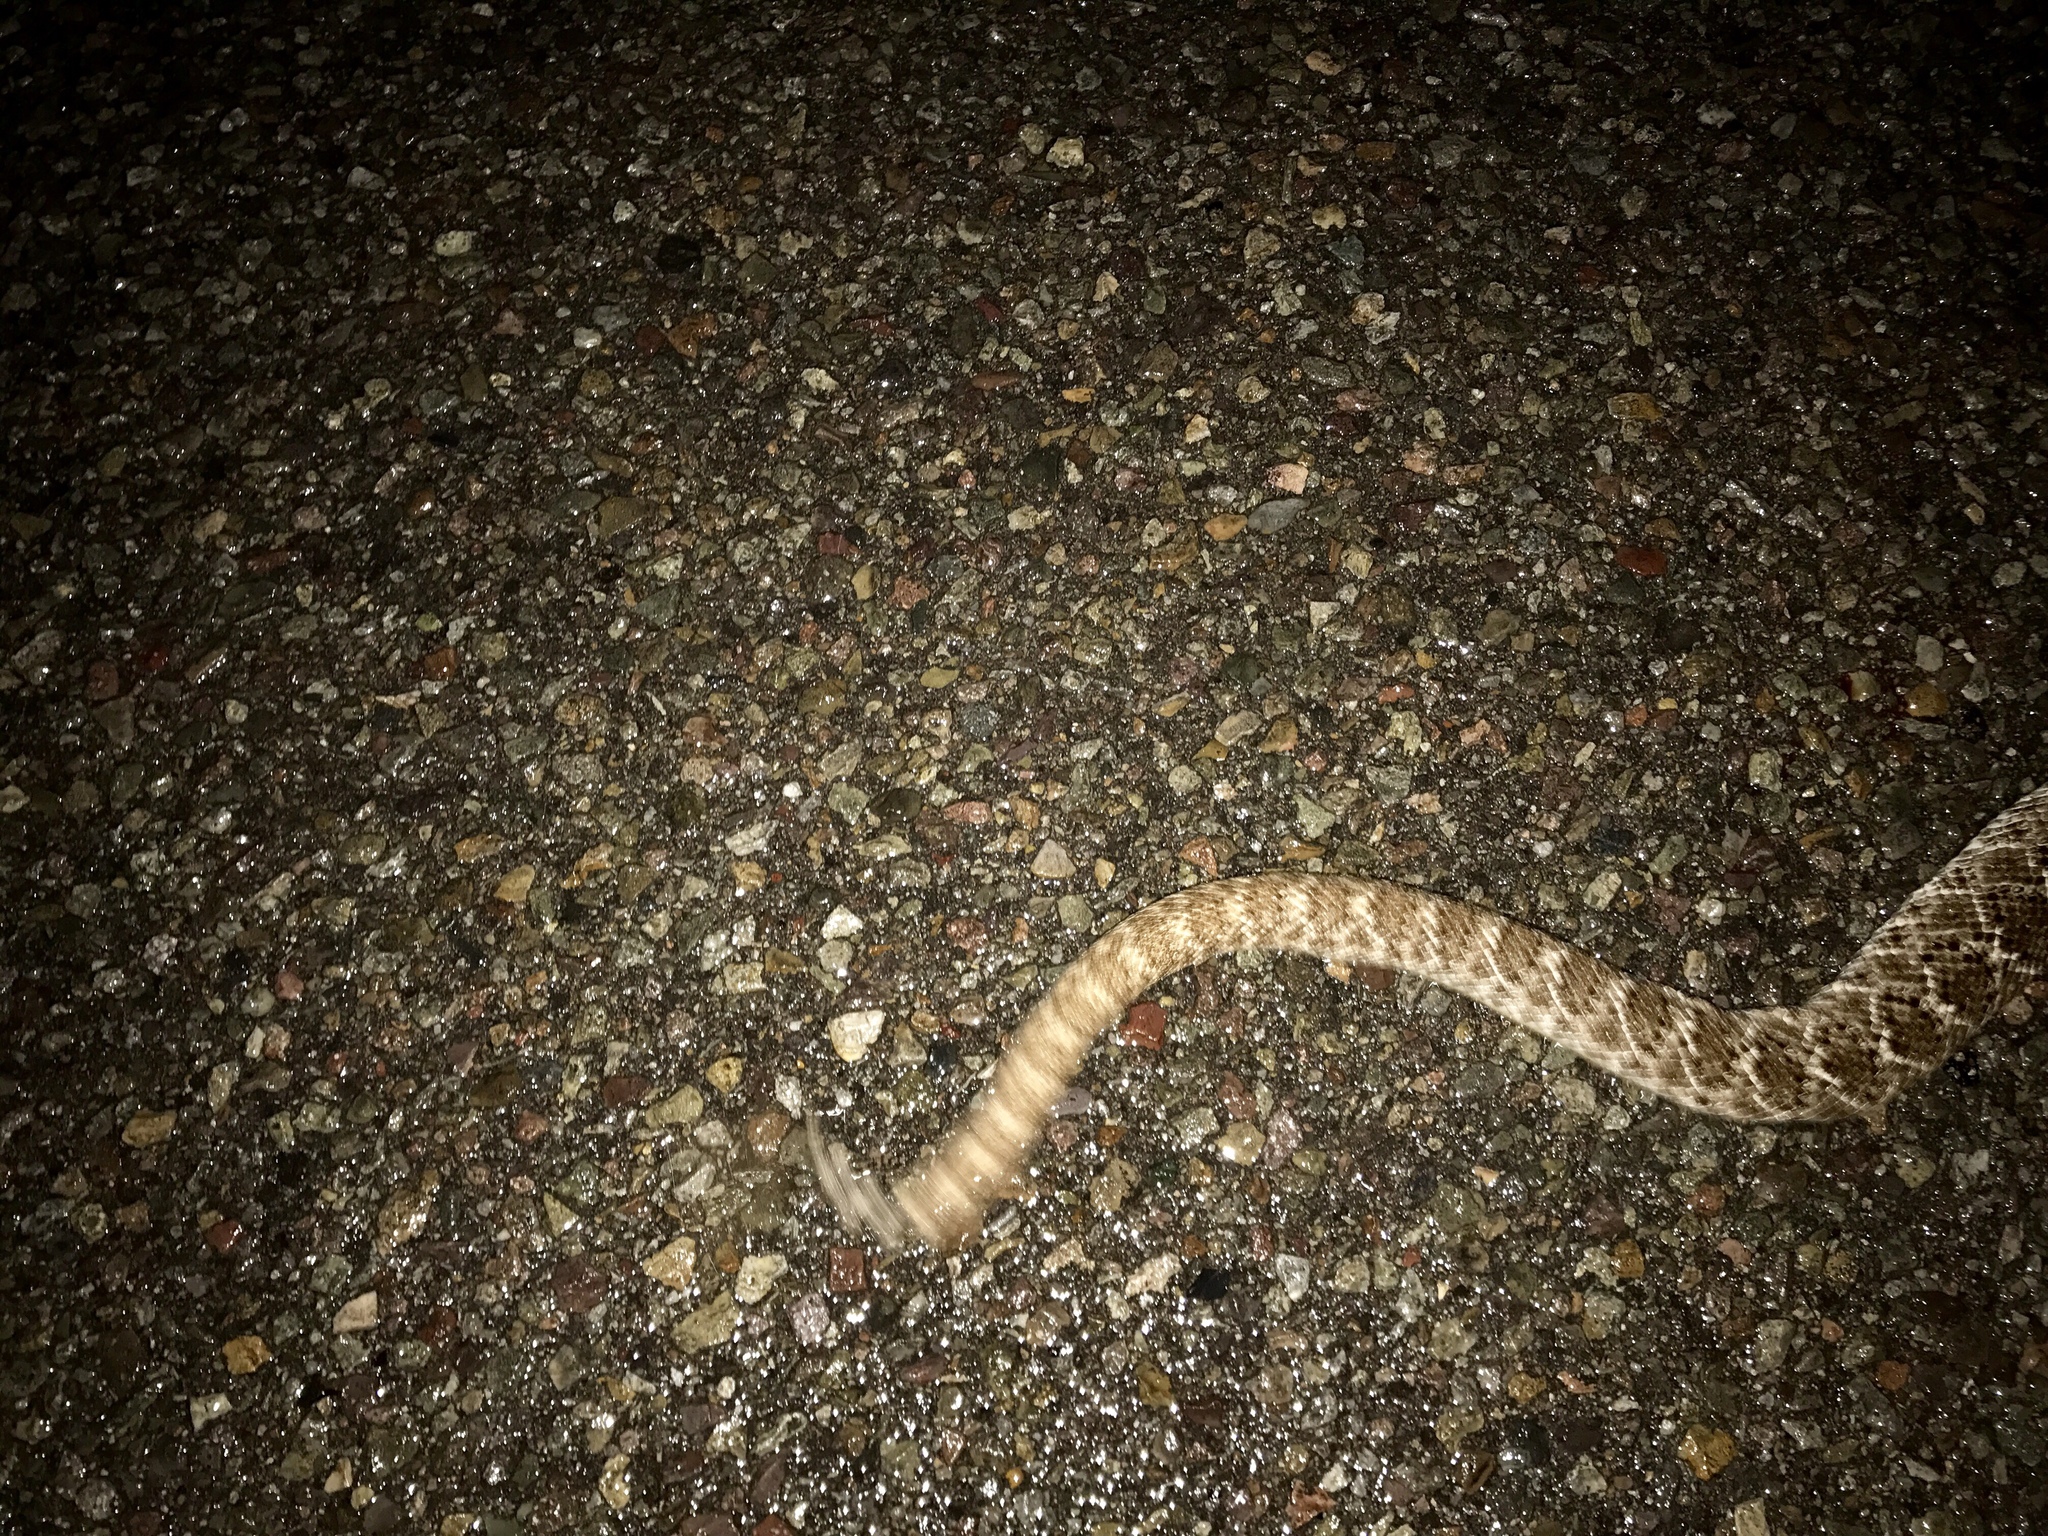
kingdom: Animalia
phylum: Chordata
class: Squamata
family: Viperidae
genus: Crotalus
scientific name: Crotalus atrox
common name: Western diamond-backed rattlesnake
